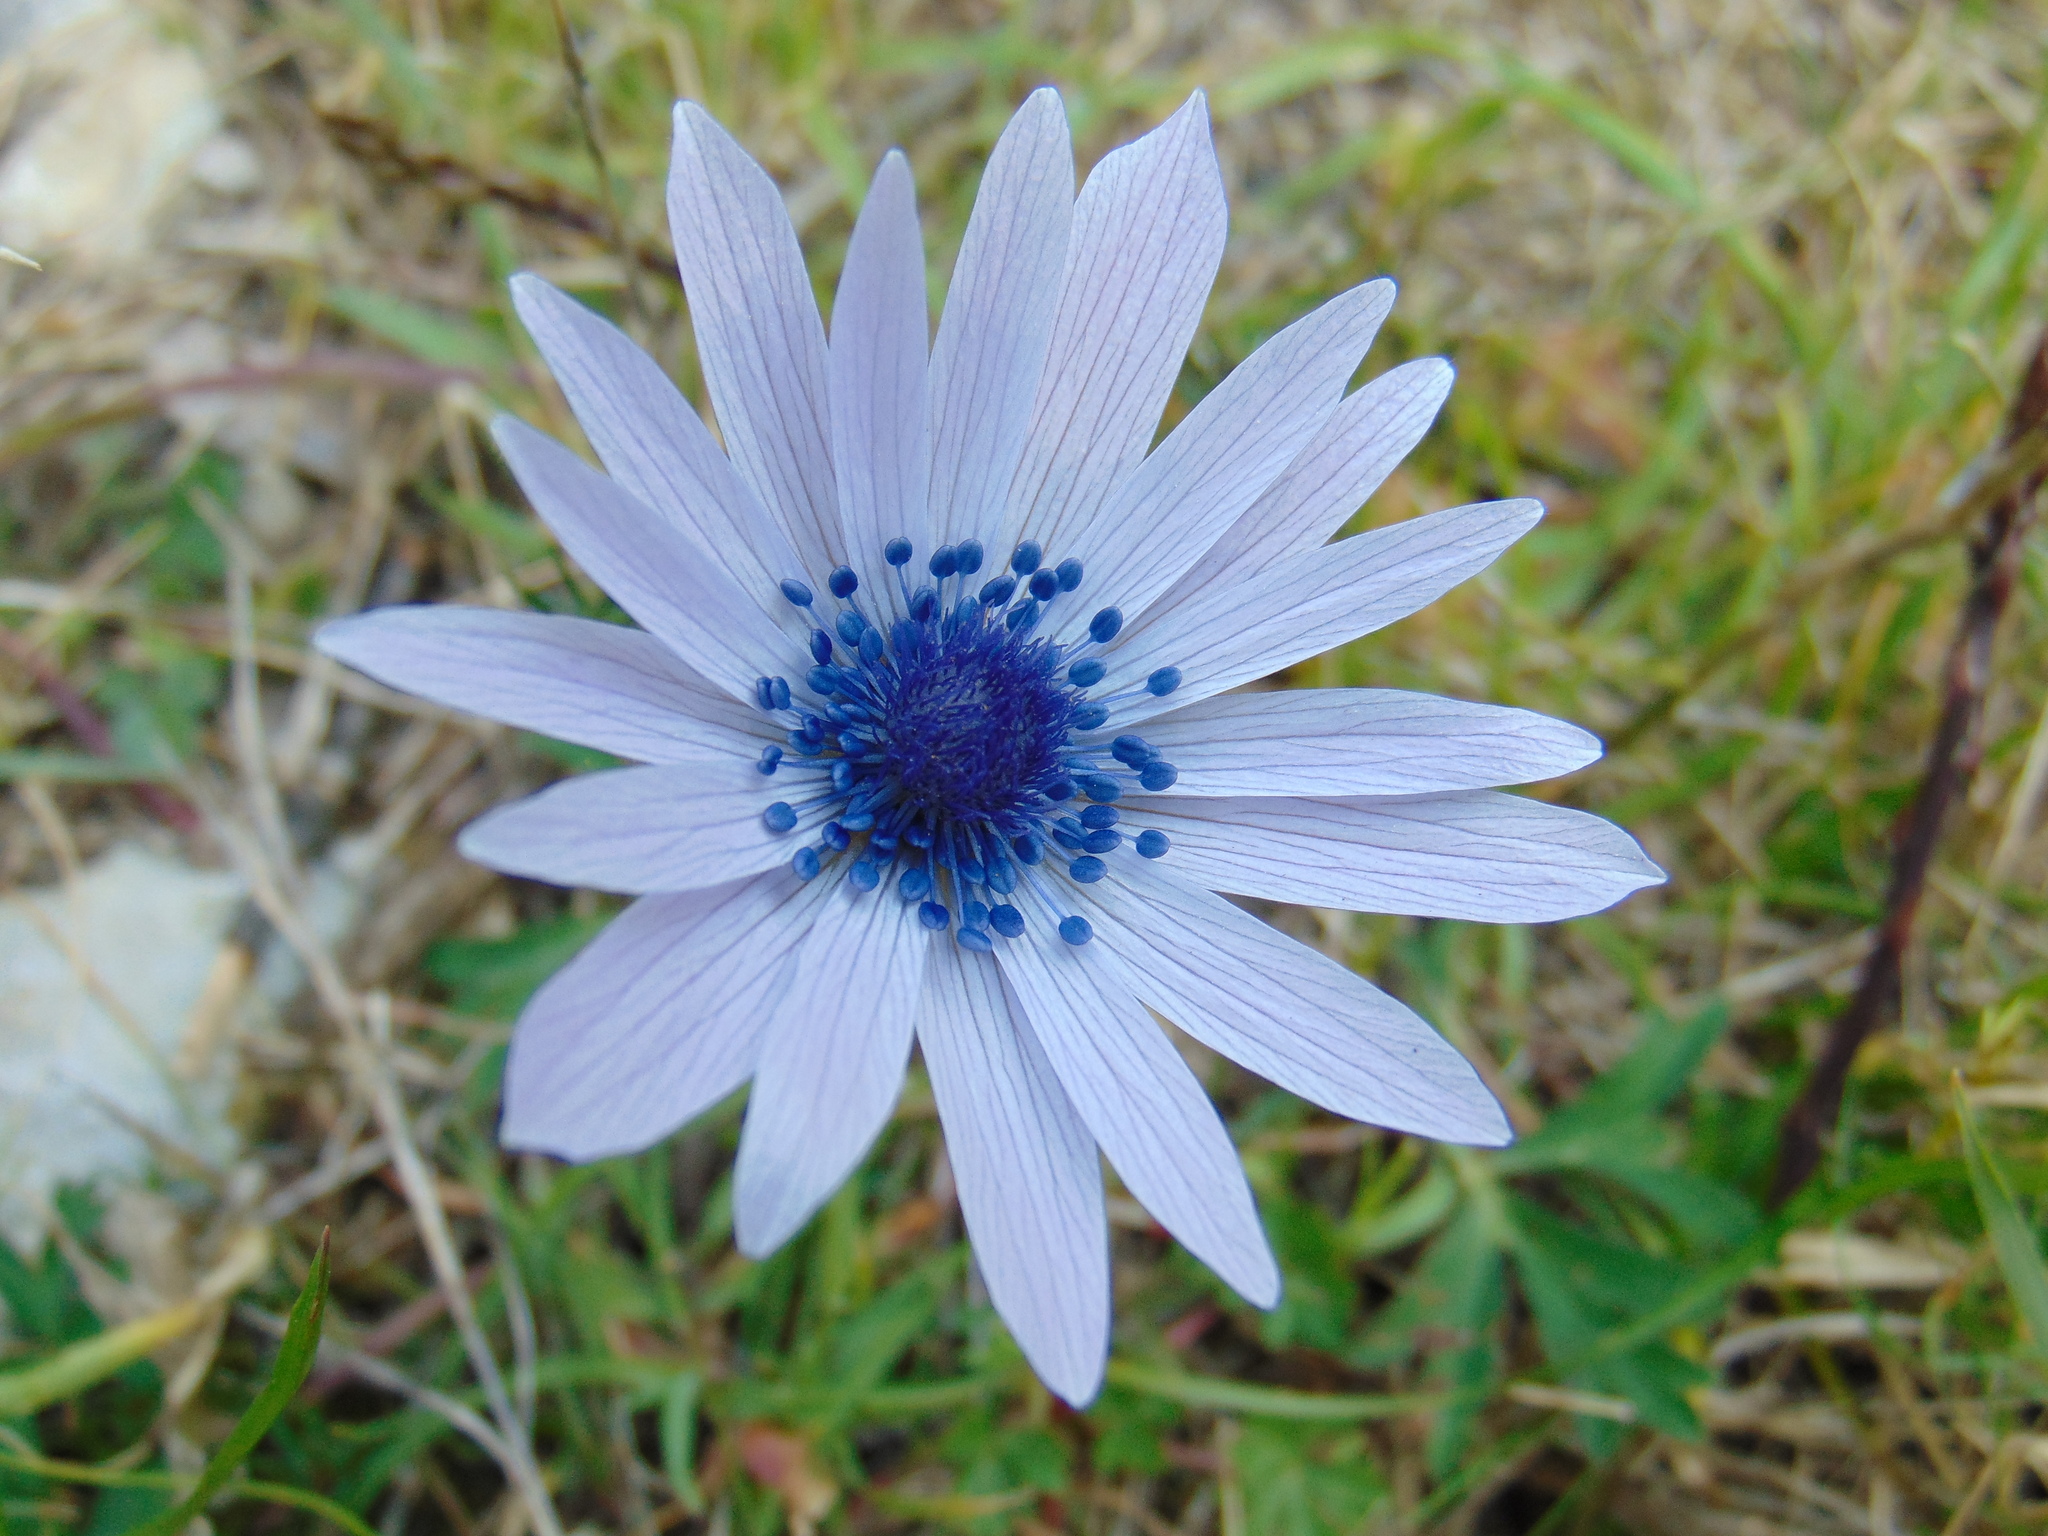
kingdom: Plantae
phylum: Tracheophyta
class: Magnoliopsida
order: Ranunculales
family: Ranunculaceae
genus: Anemone
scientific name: Anemone hortensis
